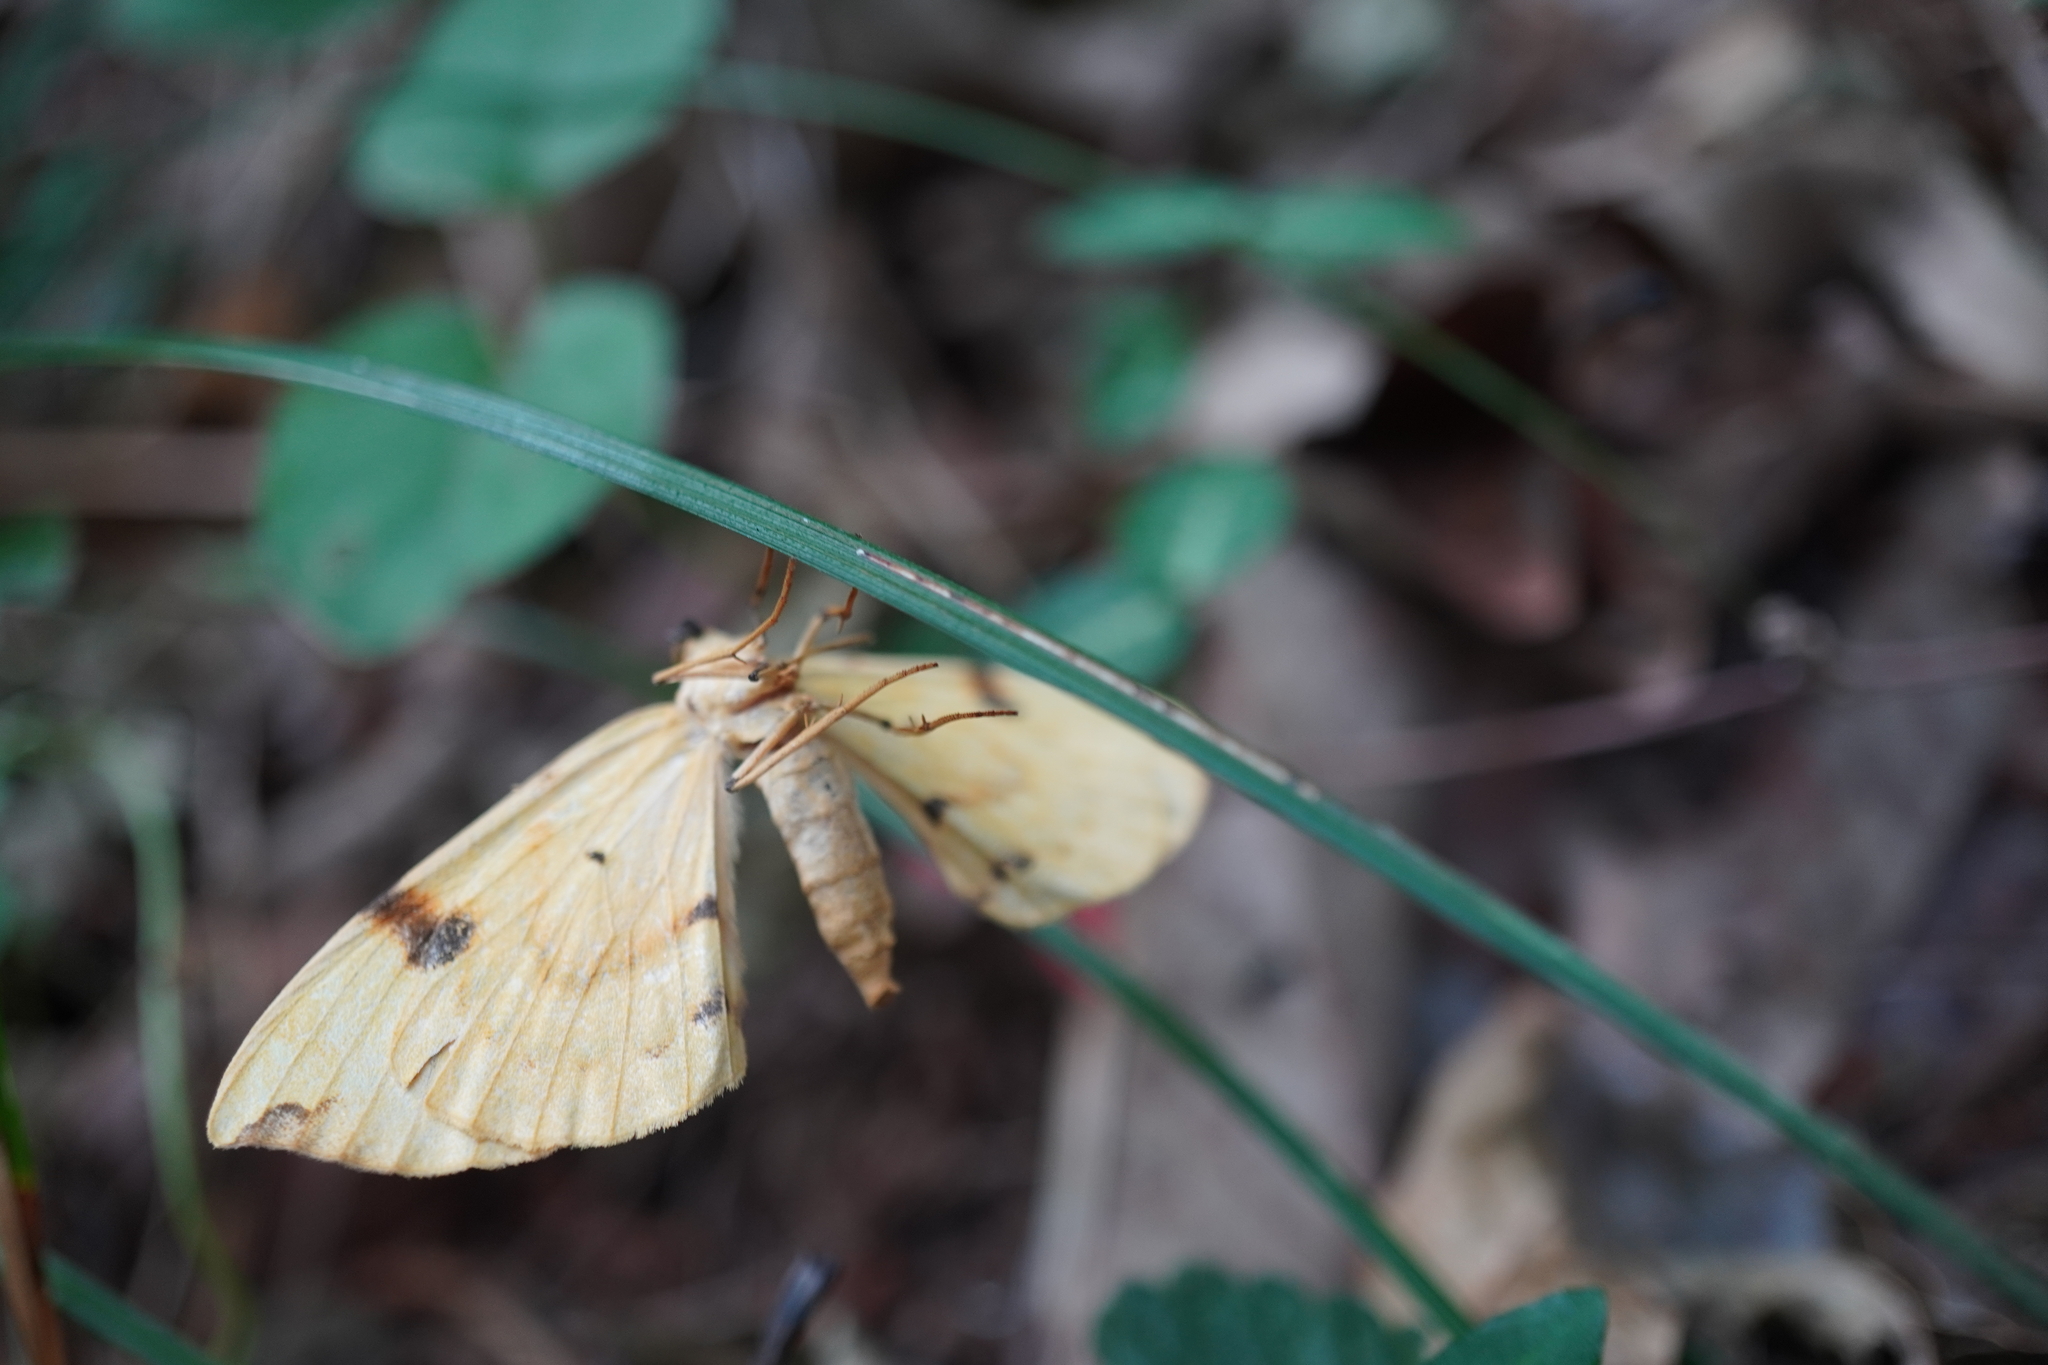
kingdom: Animalia
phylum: Arthropoda
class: Insecta
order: Lepidoptera
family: Geometridae
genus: Gandaritis
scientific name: Gandaritis fixseni
